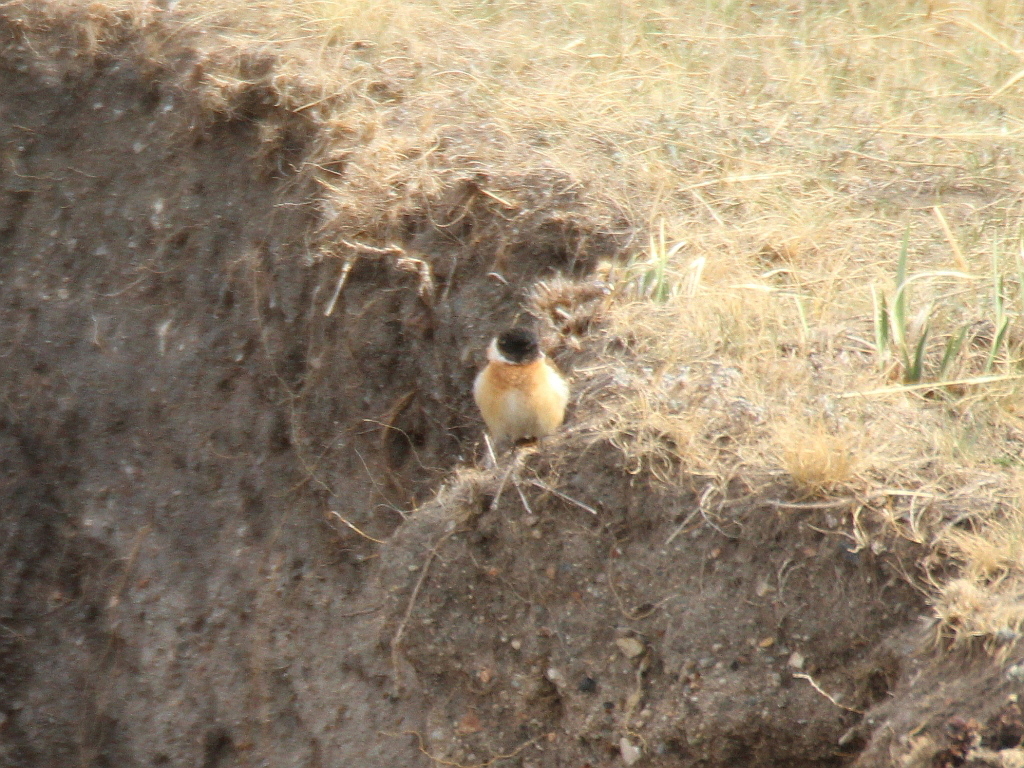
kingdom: Animalia
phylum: Chordata
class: Aves
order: Passeriformes
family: Muscicapidae
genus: Saxicola
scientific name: Saxicola maurus
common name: Siberian stonechat
